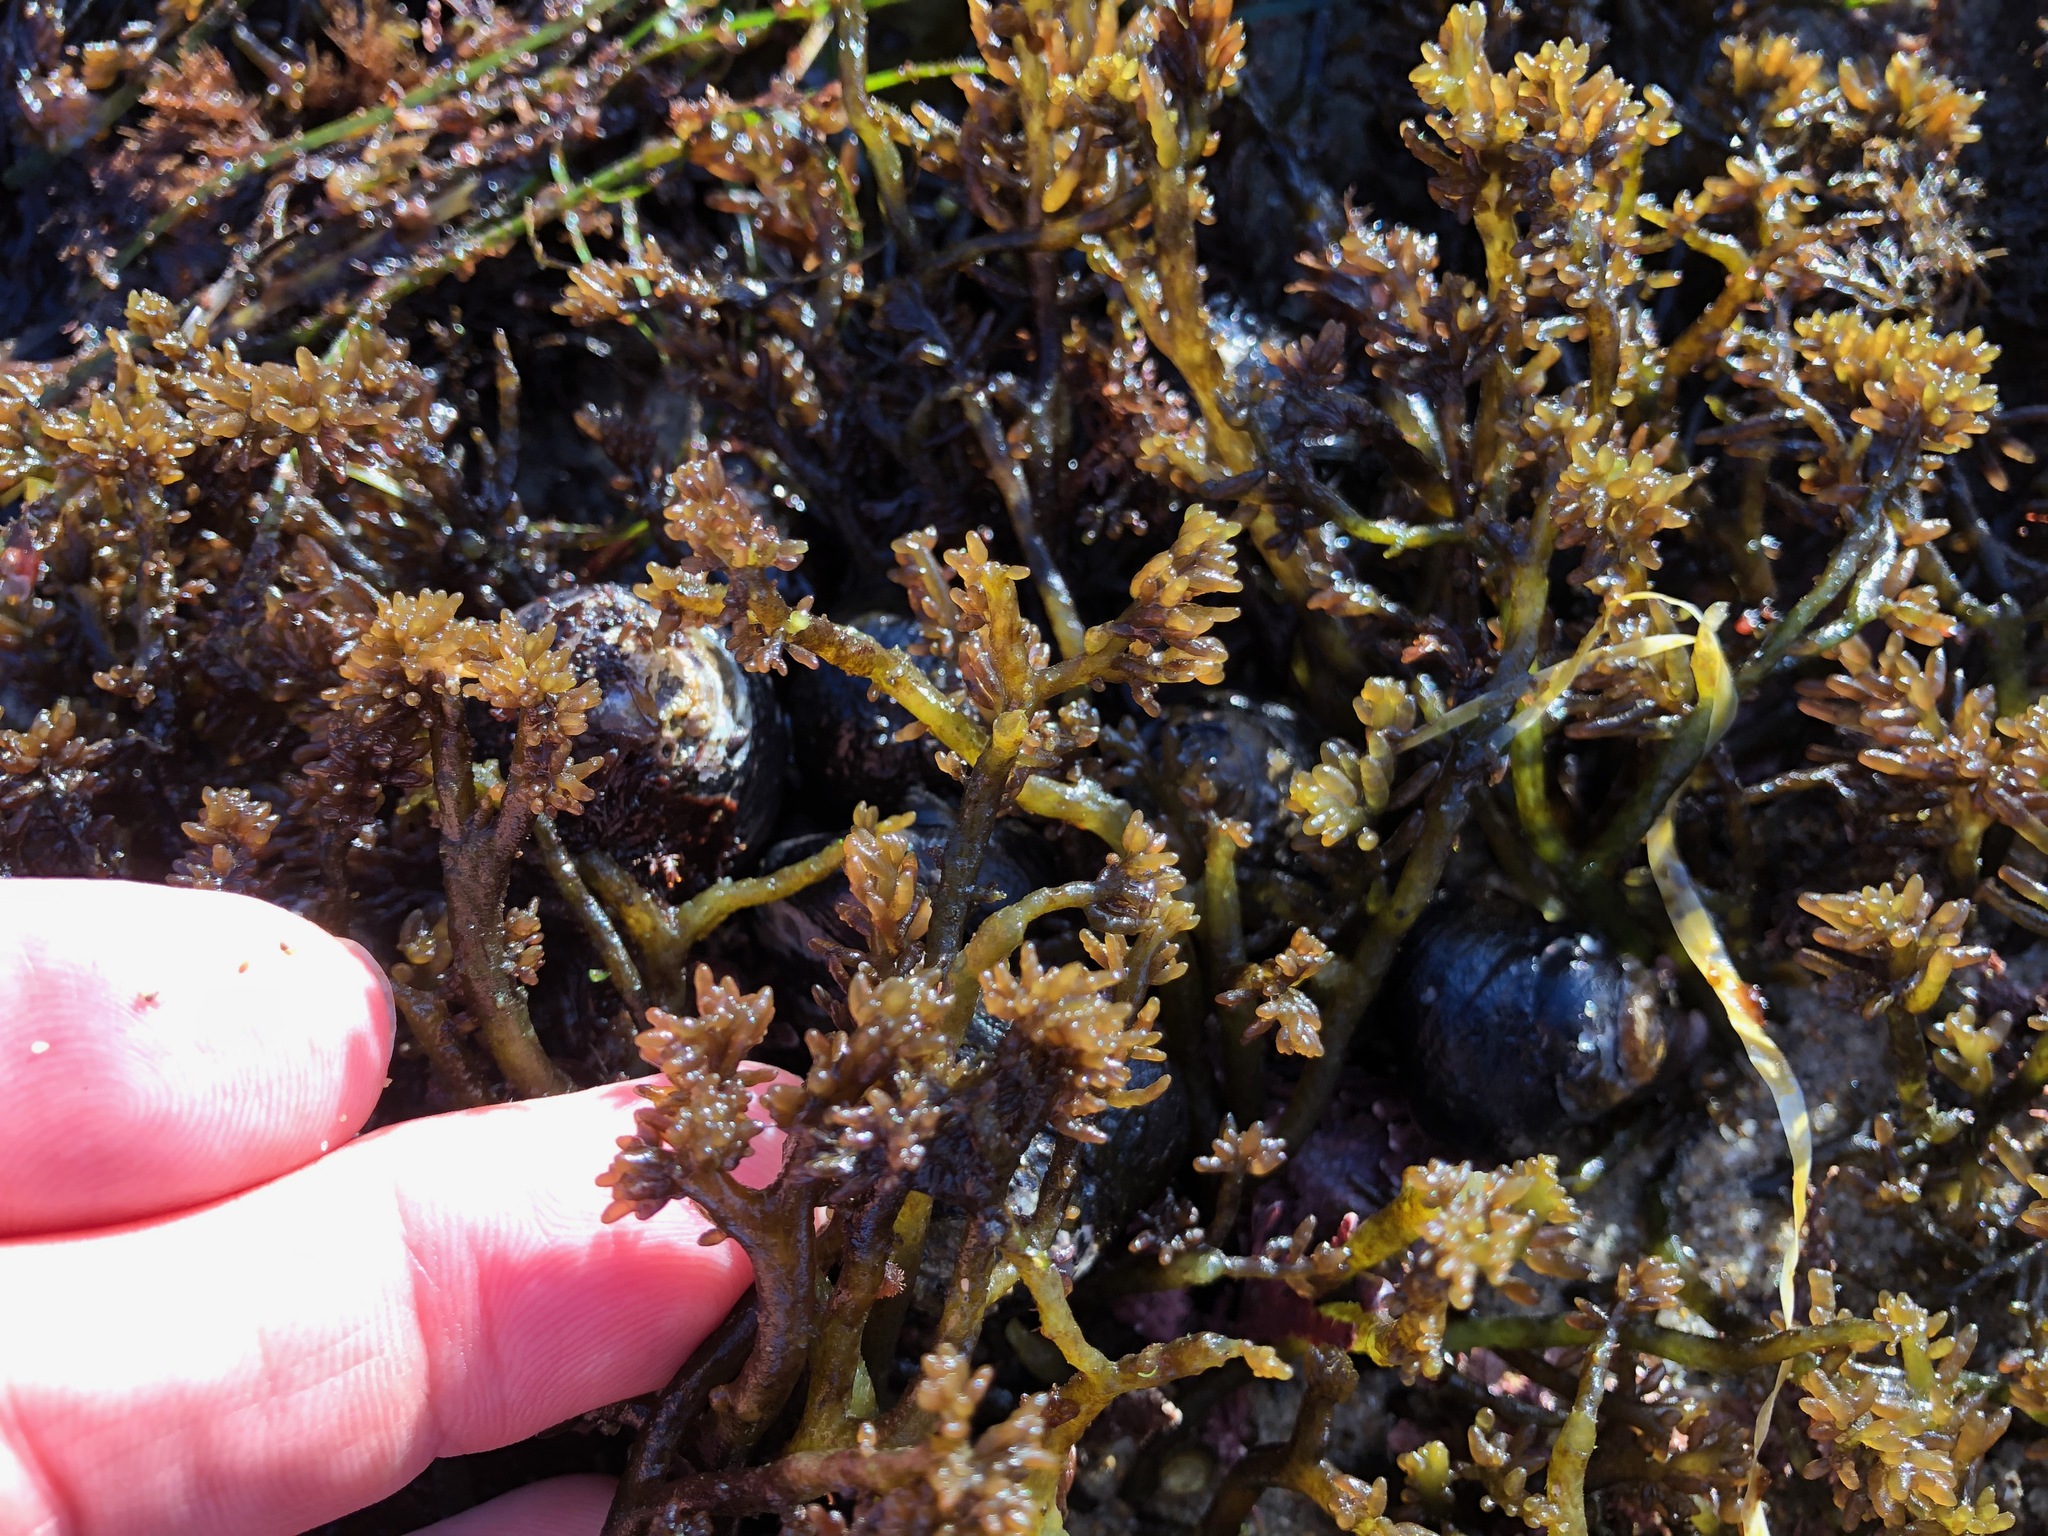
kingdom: Plantae
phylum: Rhodophyta
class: Florideophyceae
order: Rhodymeniales
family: Champiaceae
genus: Neogastroclonium
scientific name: Neogastroclonium subarticulatum
